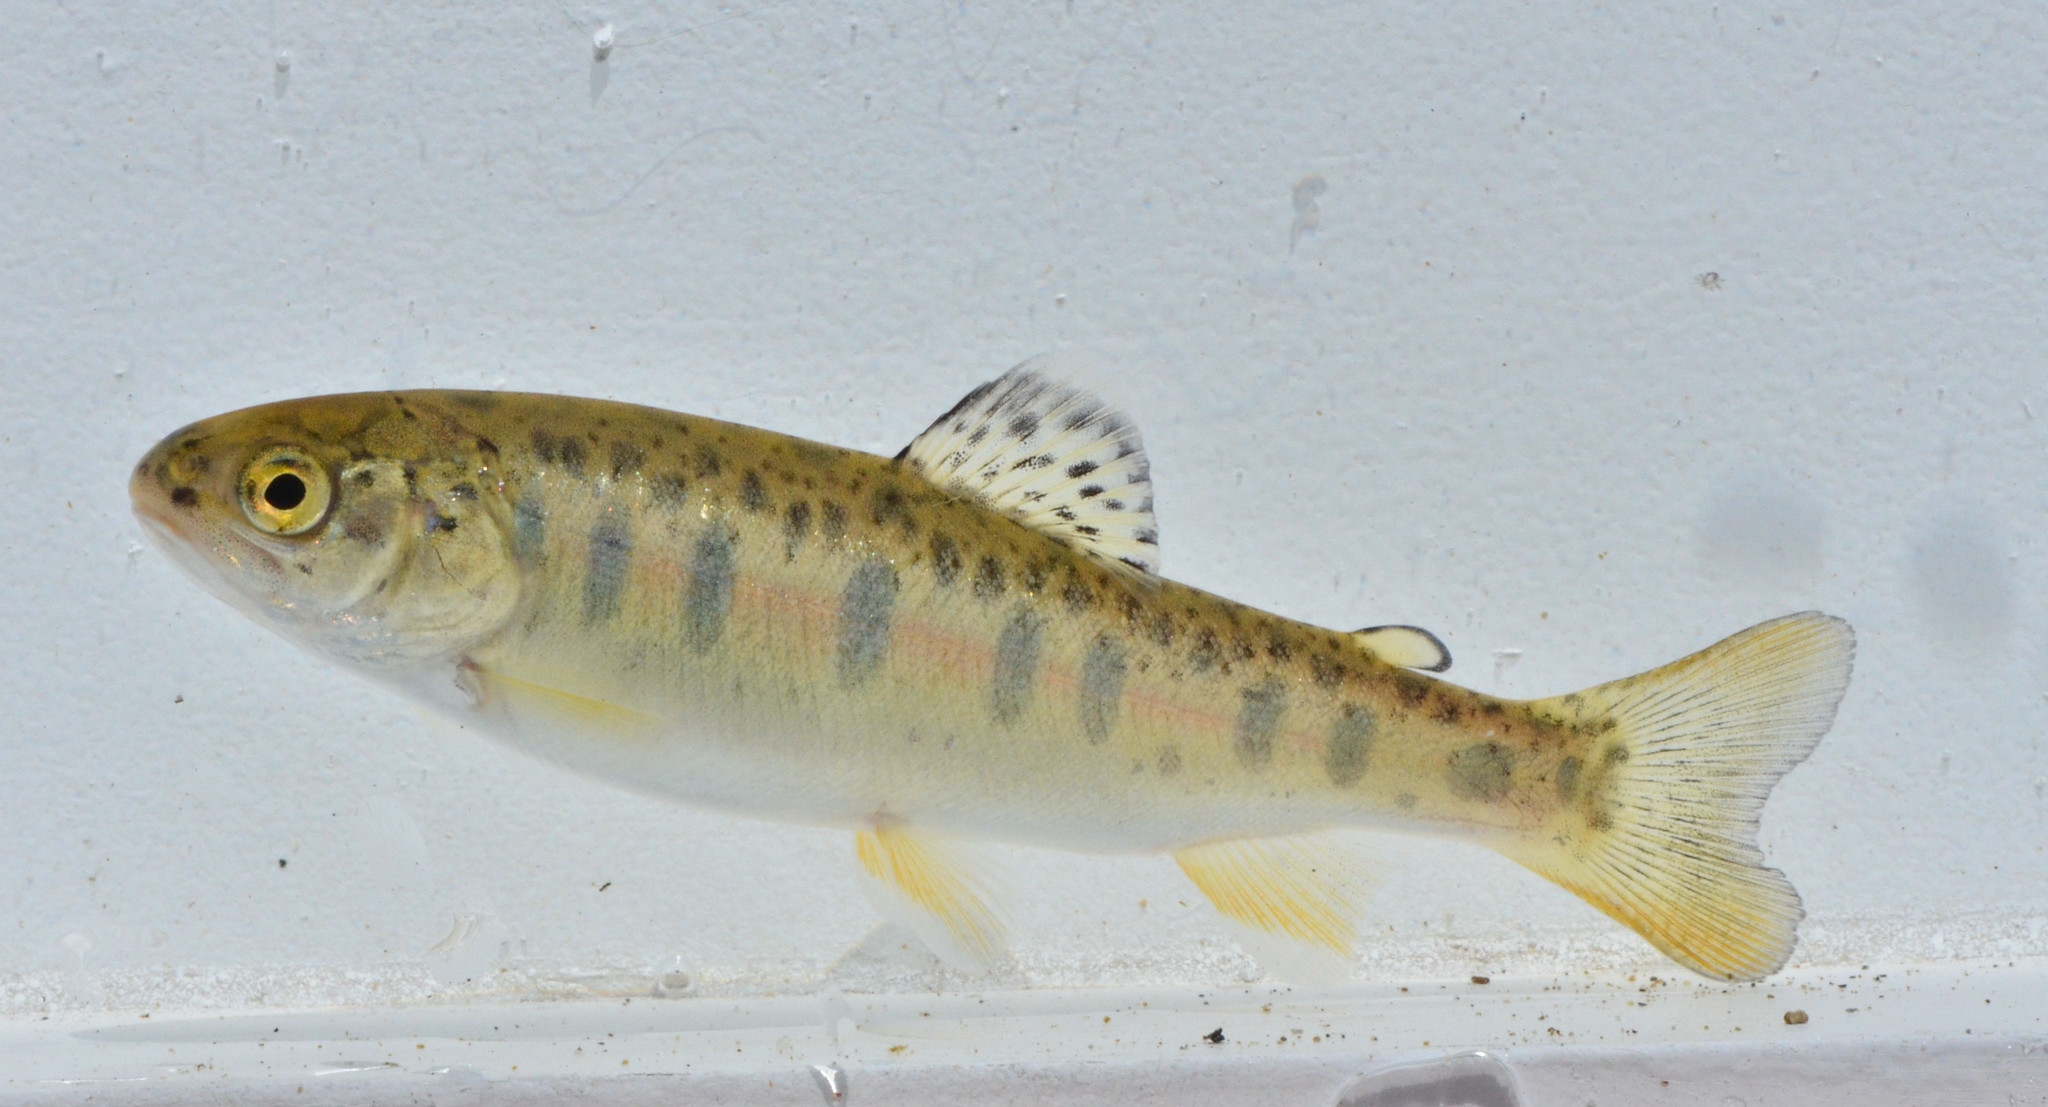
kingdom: Animalia
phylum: Chordata
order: Salmoniformes
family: Salmonidae
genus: Oncorhynchus
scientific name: Oncorhynchus mykiss
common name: Rainbow trout
